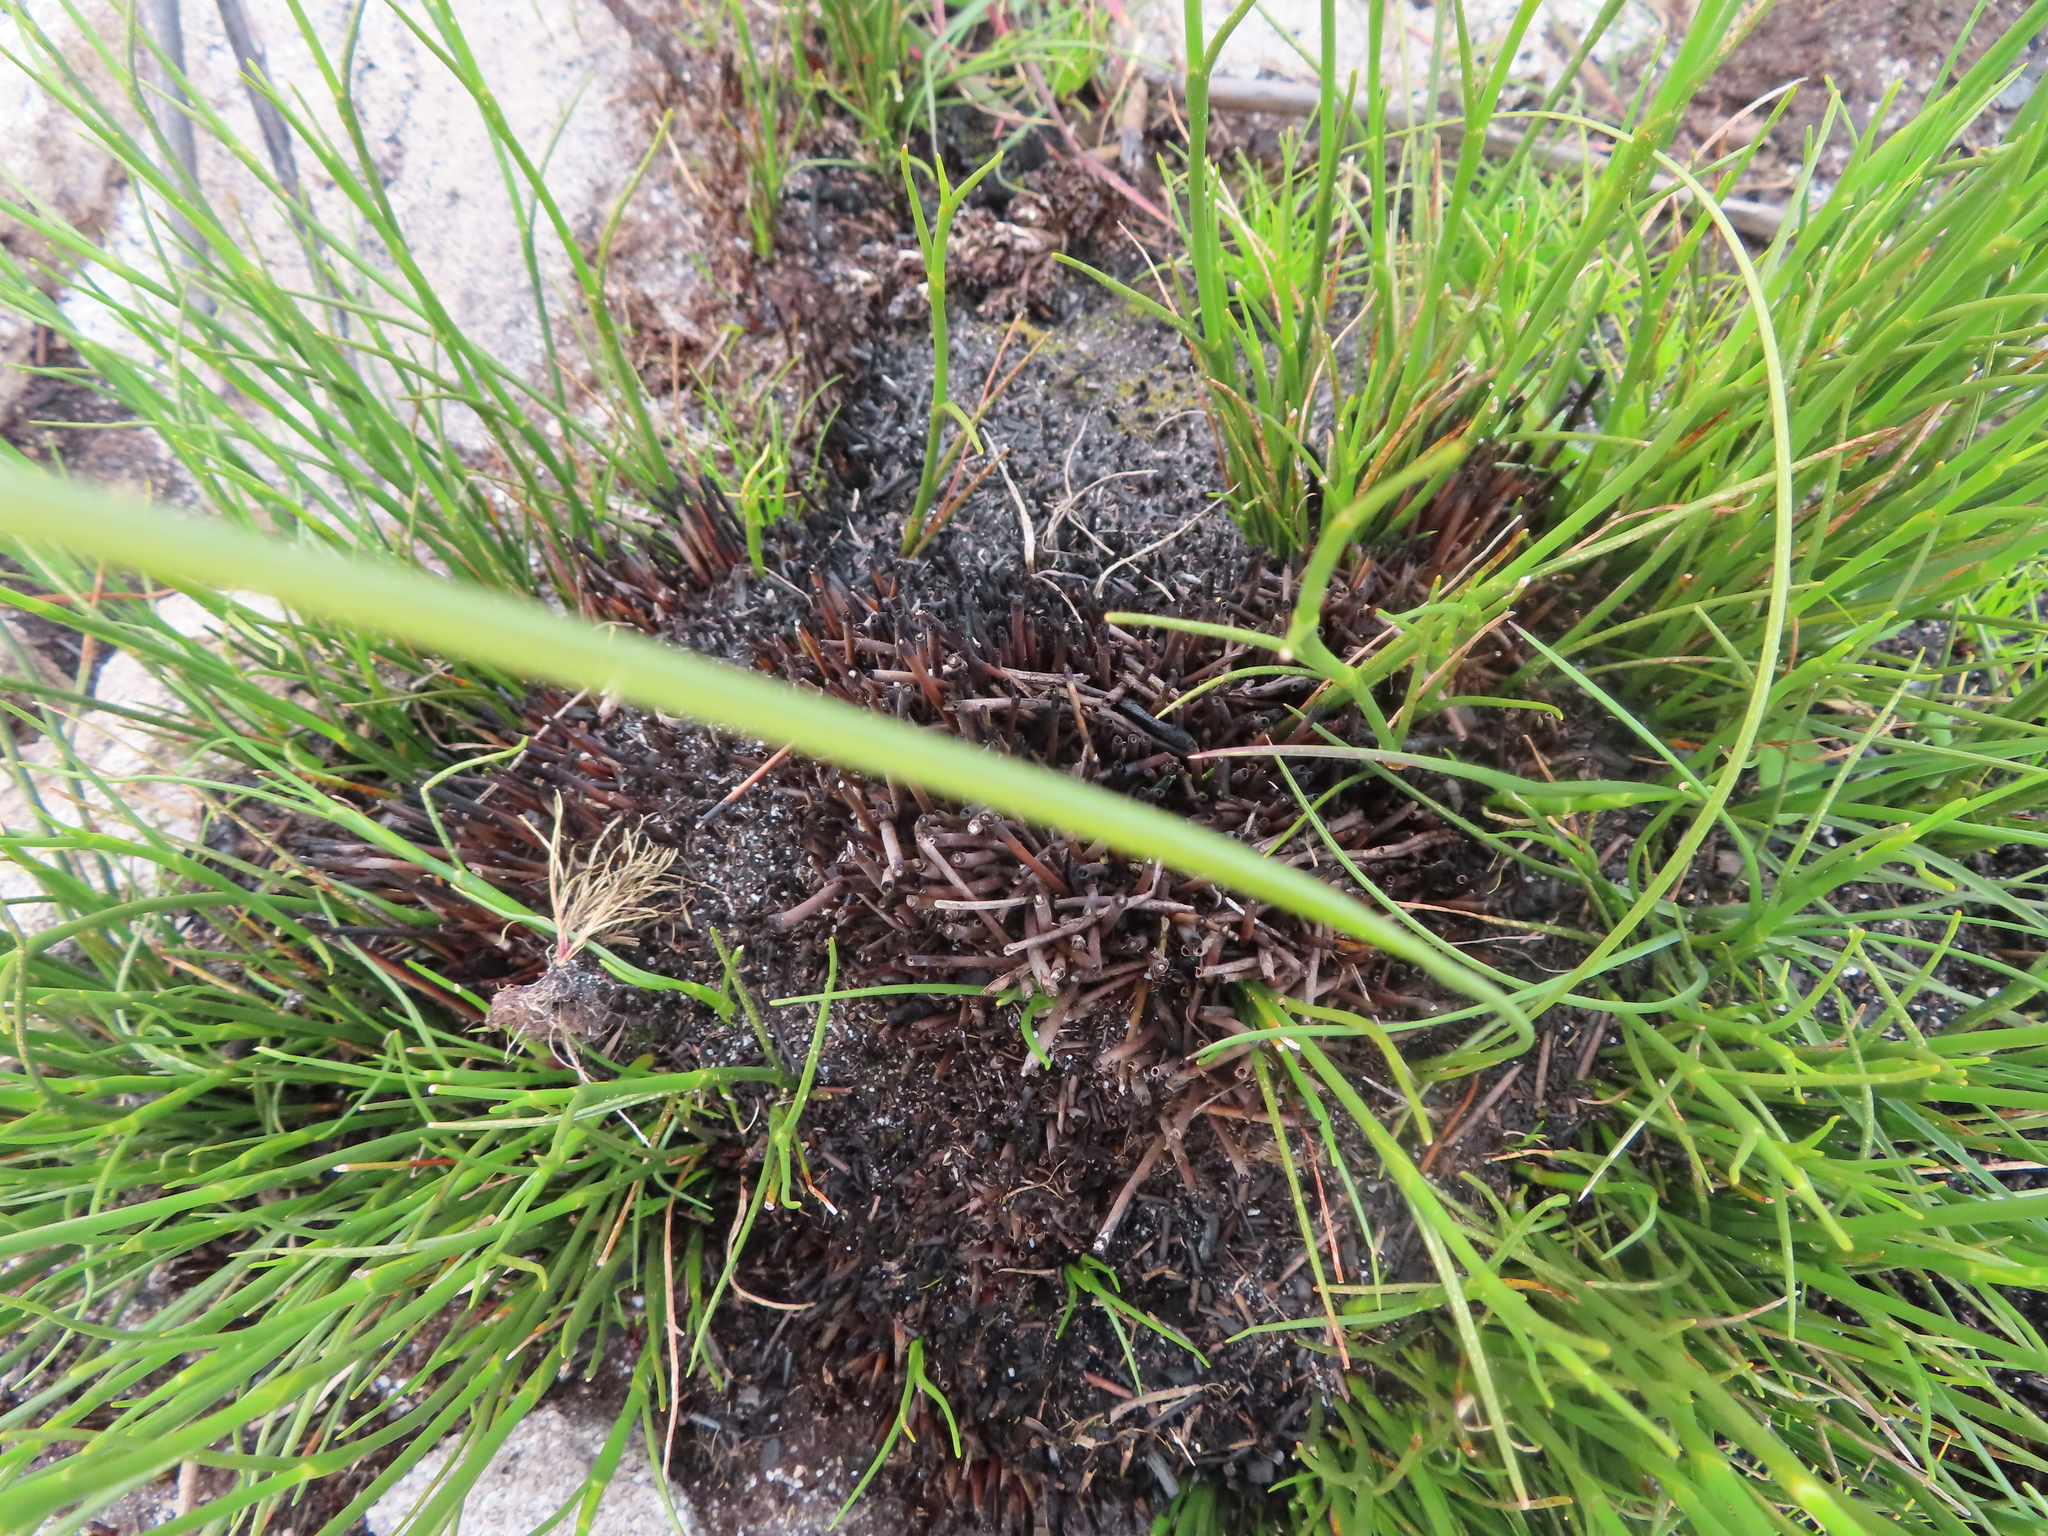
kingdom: Plantae
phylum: Tracheophyta
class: Liliopsida
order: Asparagales
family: Iridaceae
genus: Ixia
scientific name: Ixia micrandra
